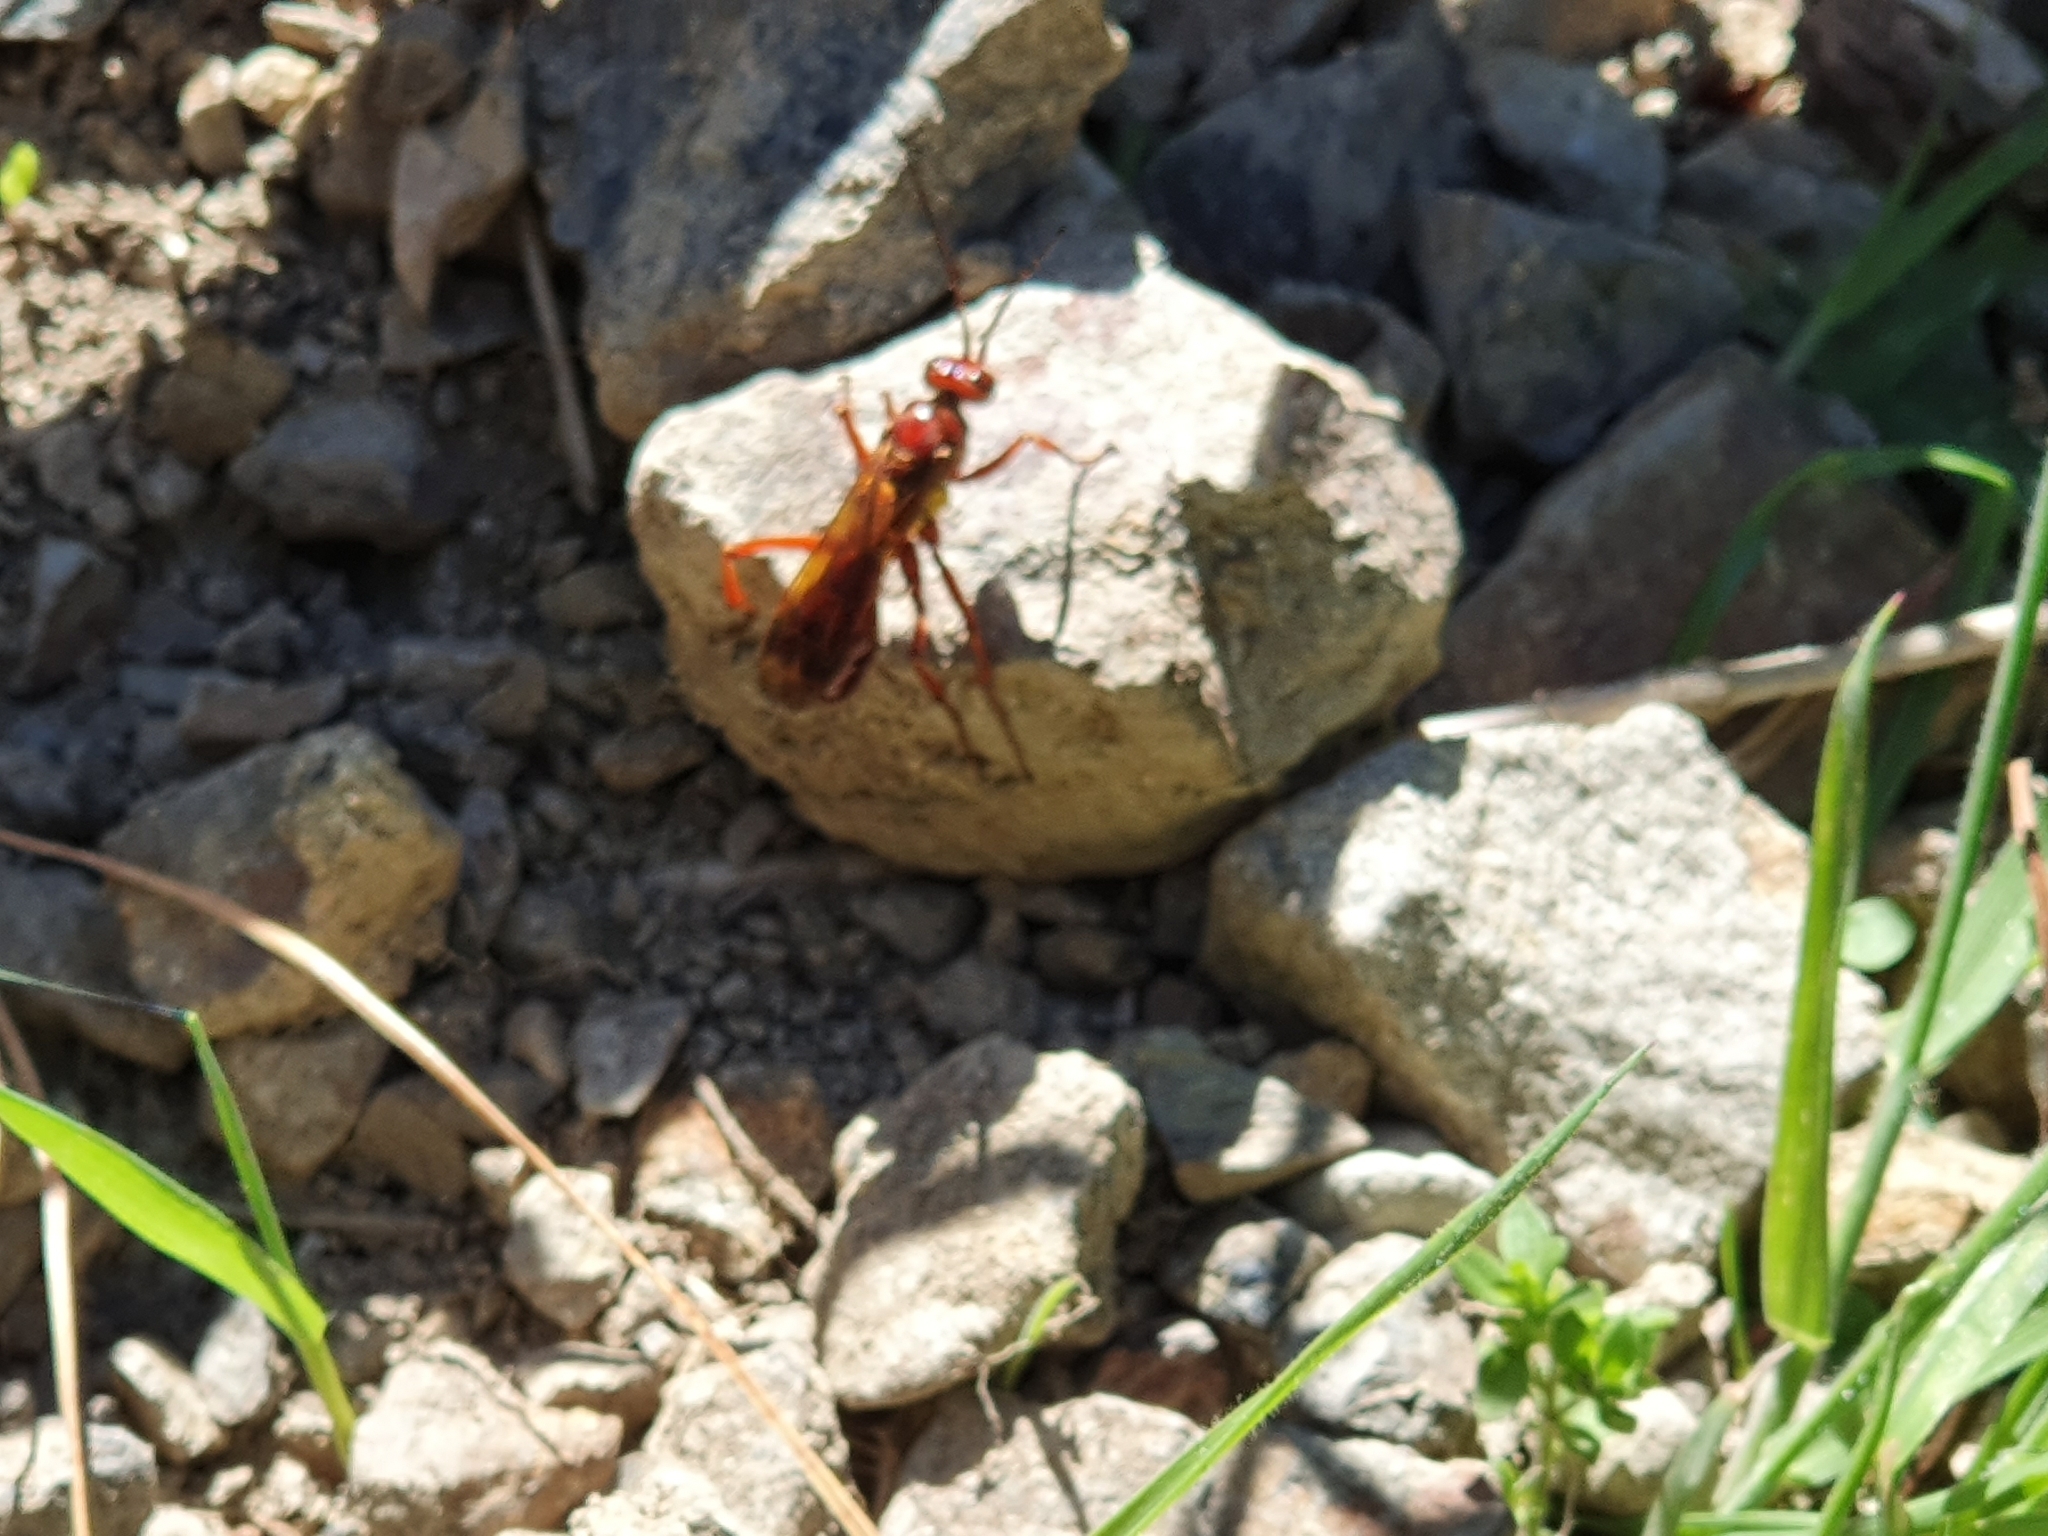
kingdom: Animalia
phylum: Arthropoda
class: Insecta
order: Hymenoptera
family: Pompilidae
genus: Sphictostethus
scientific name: Sphictostethus nitidus
